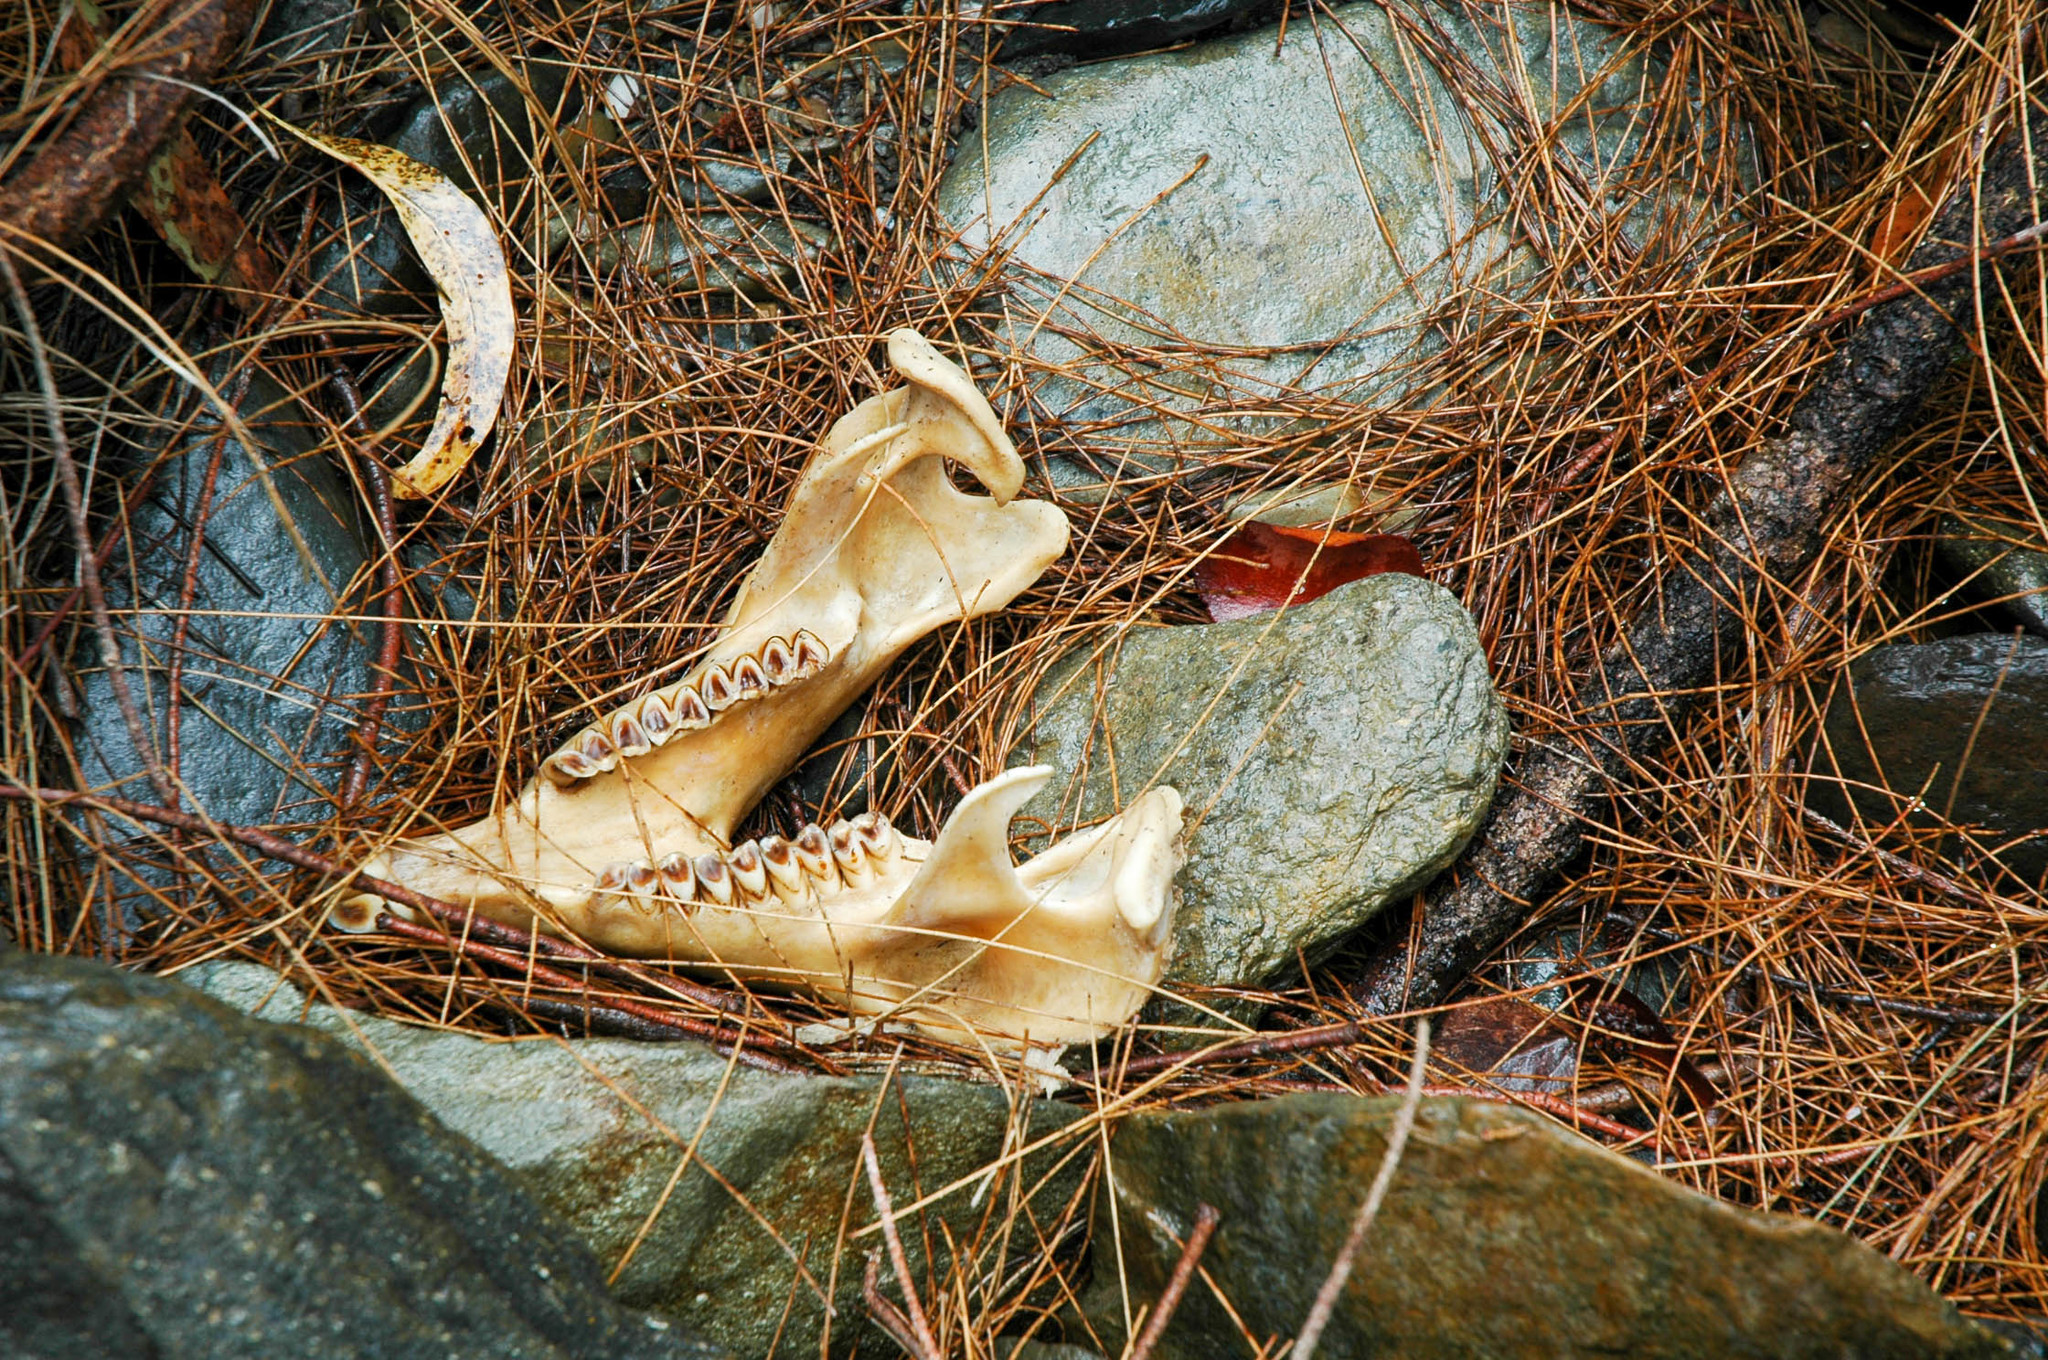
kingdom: Animalia
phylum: Chordata
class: Mammalia
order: Diprotodontia
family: Vombatidae
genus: Vombatus
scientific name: Vombatus ursinus
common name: Common wombat
